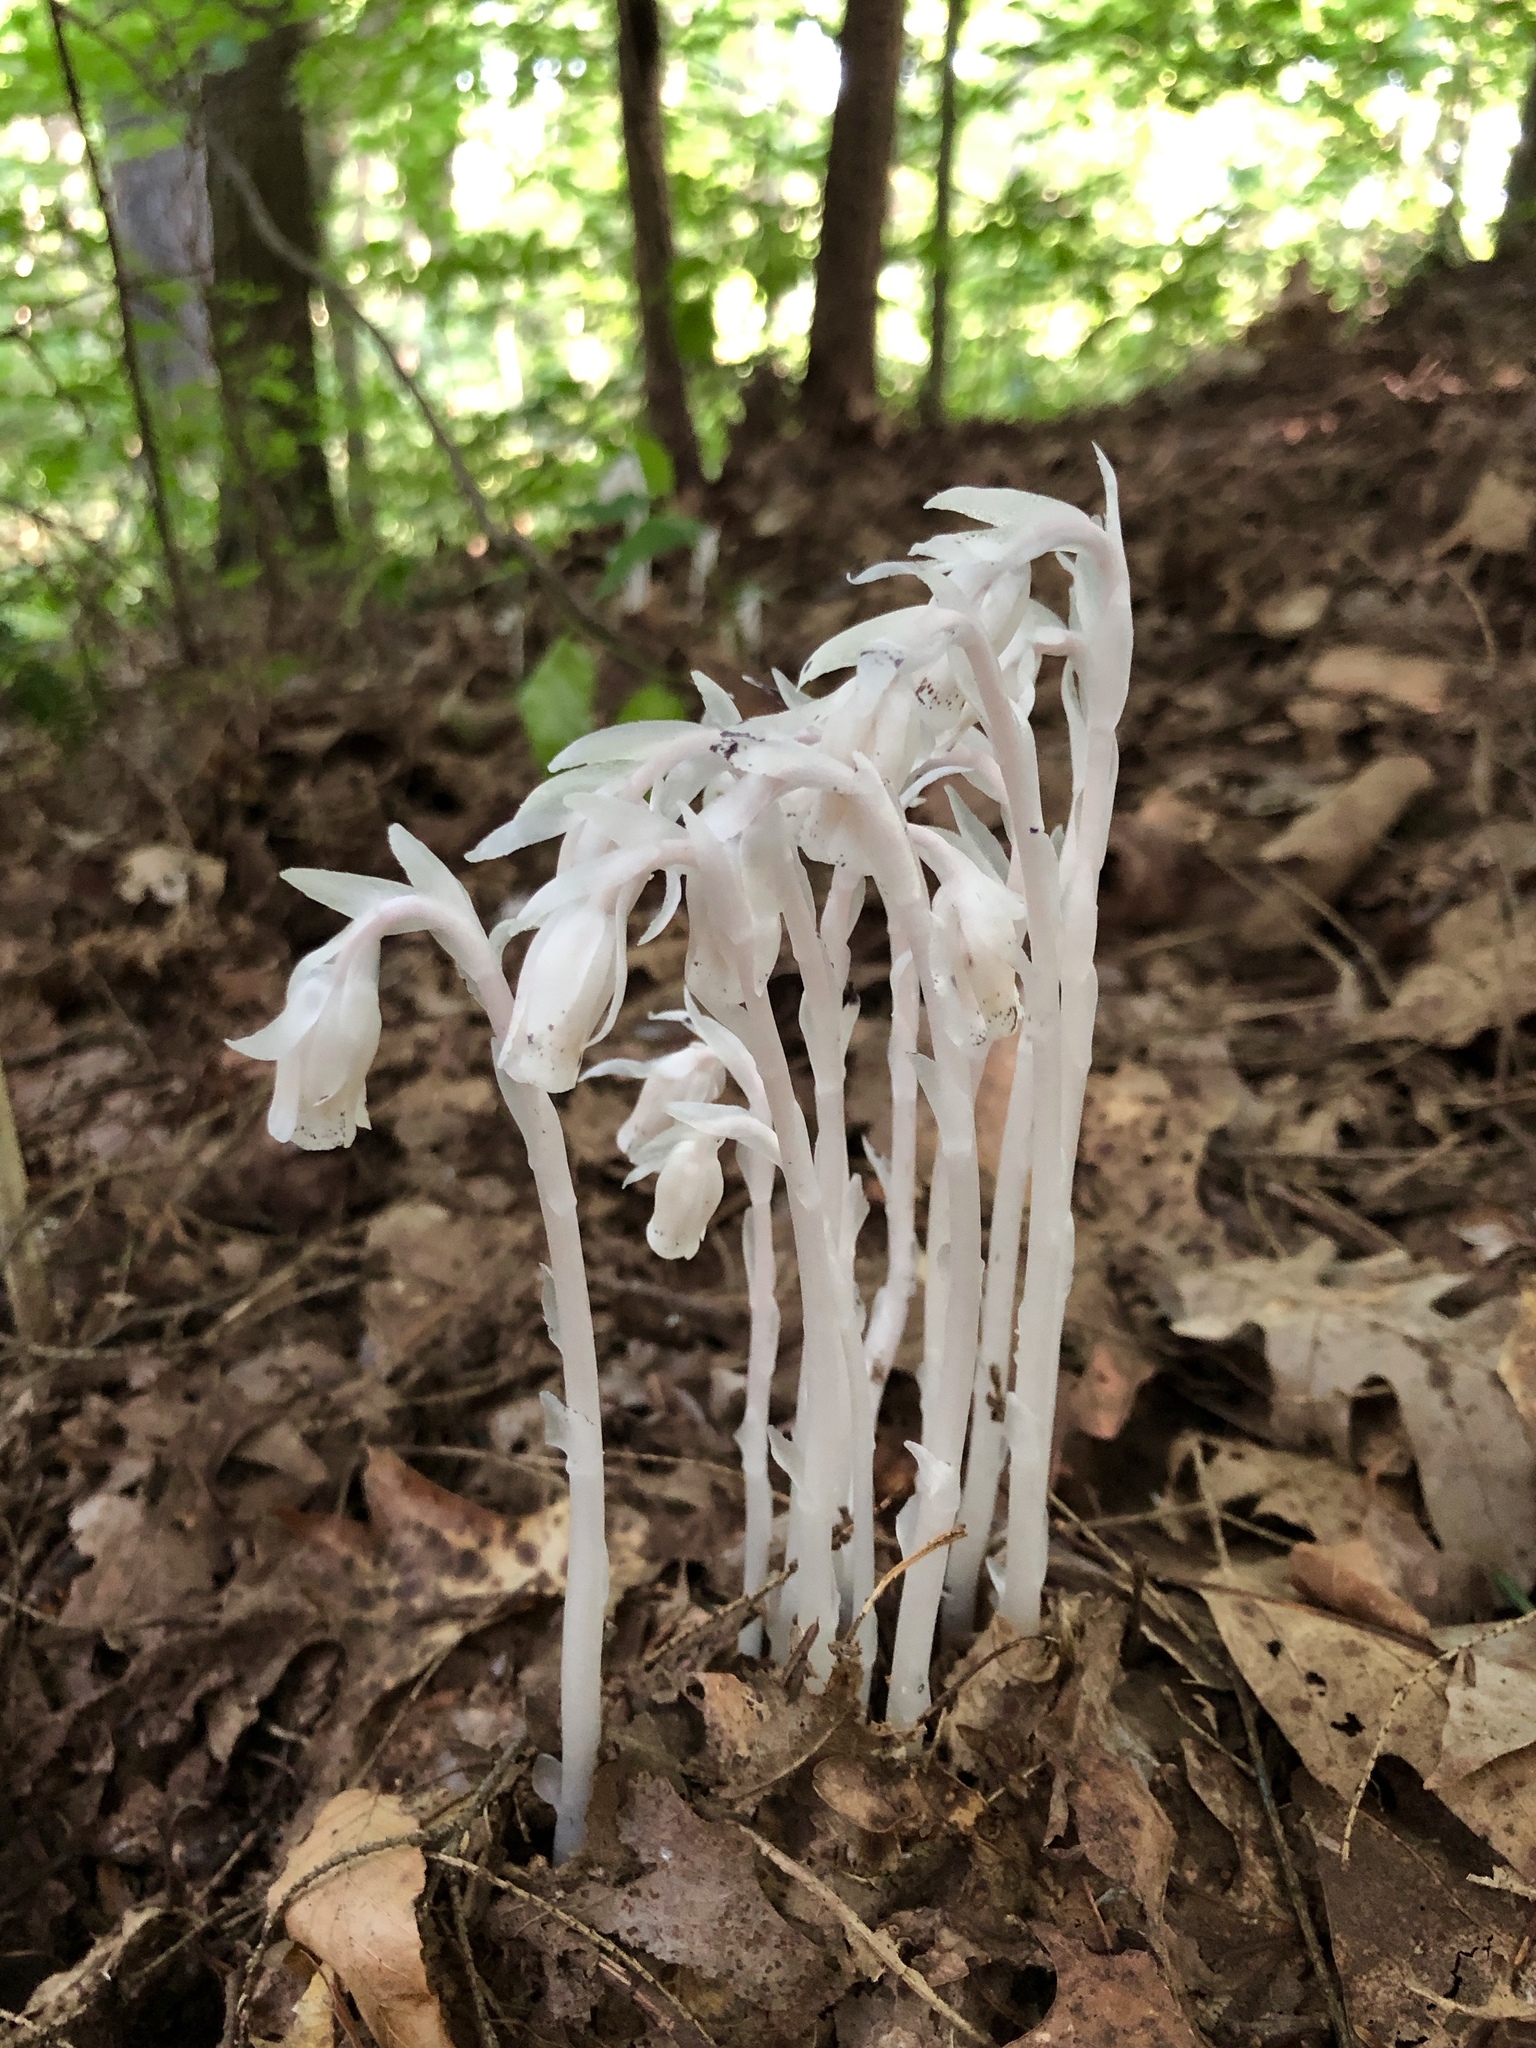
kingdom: Plantae
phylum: Tracheophyta
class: Magnoliopsida
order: Ericales
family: Ericaceae
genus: Monotropa
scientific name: Monotropa uniflora
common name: Convulsion root
